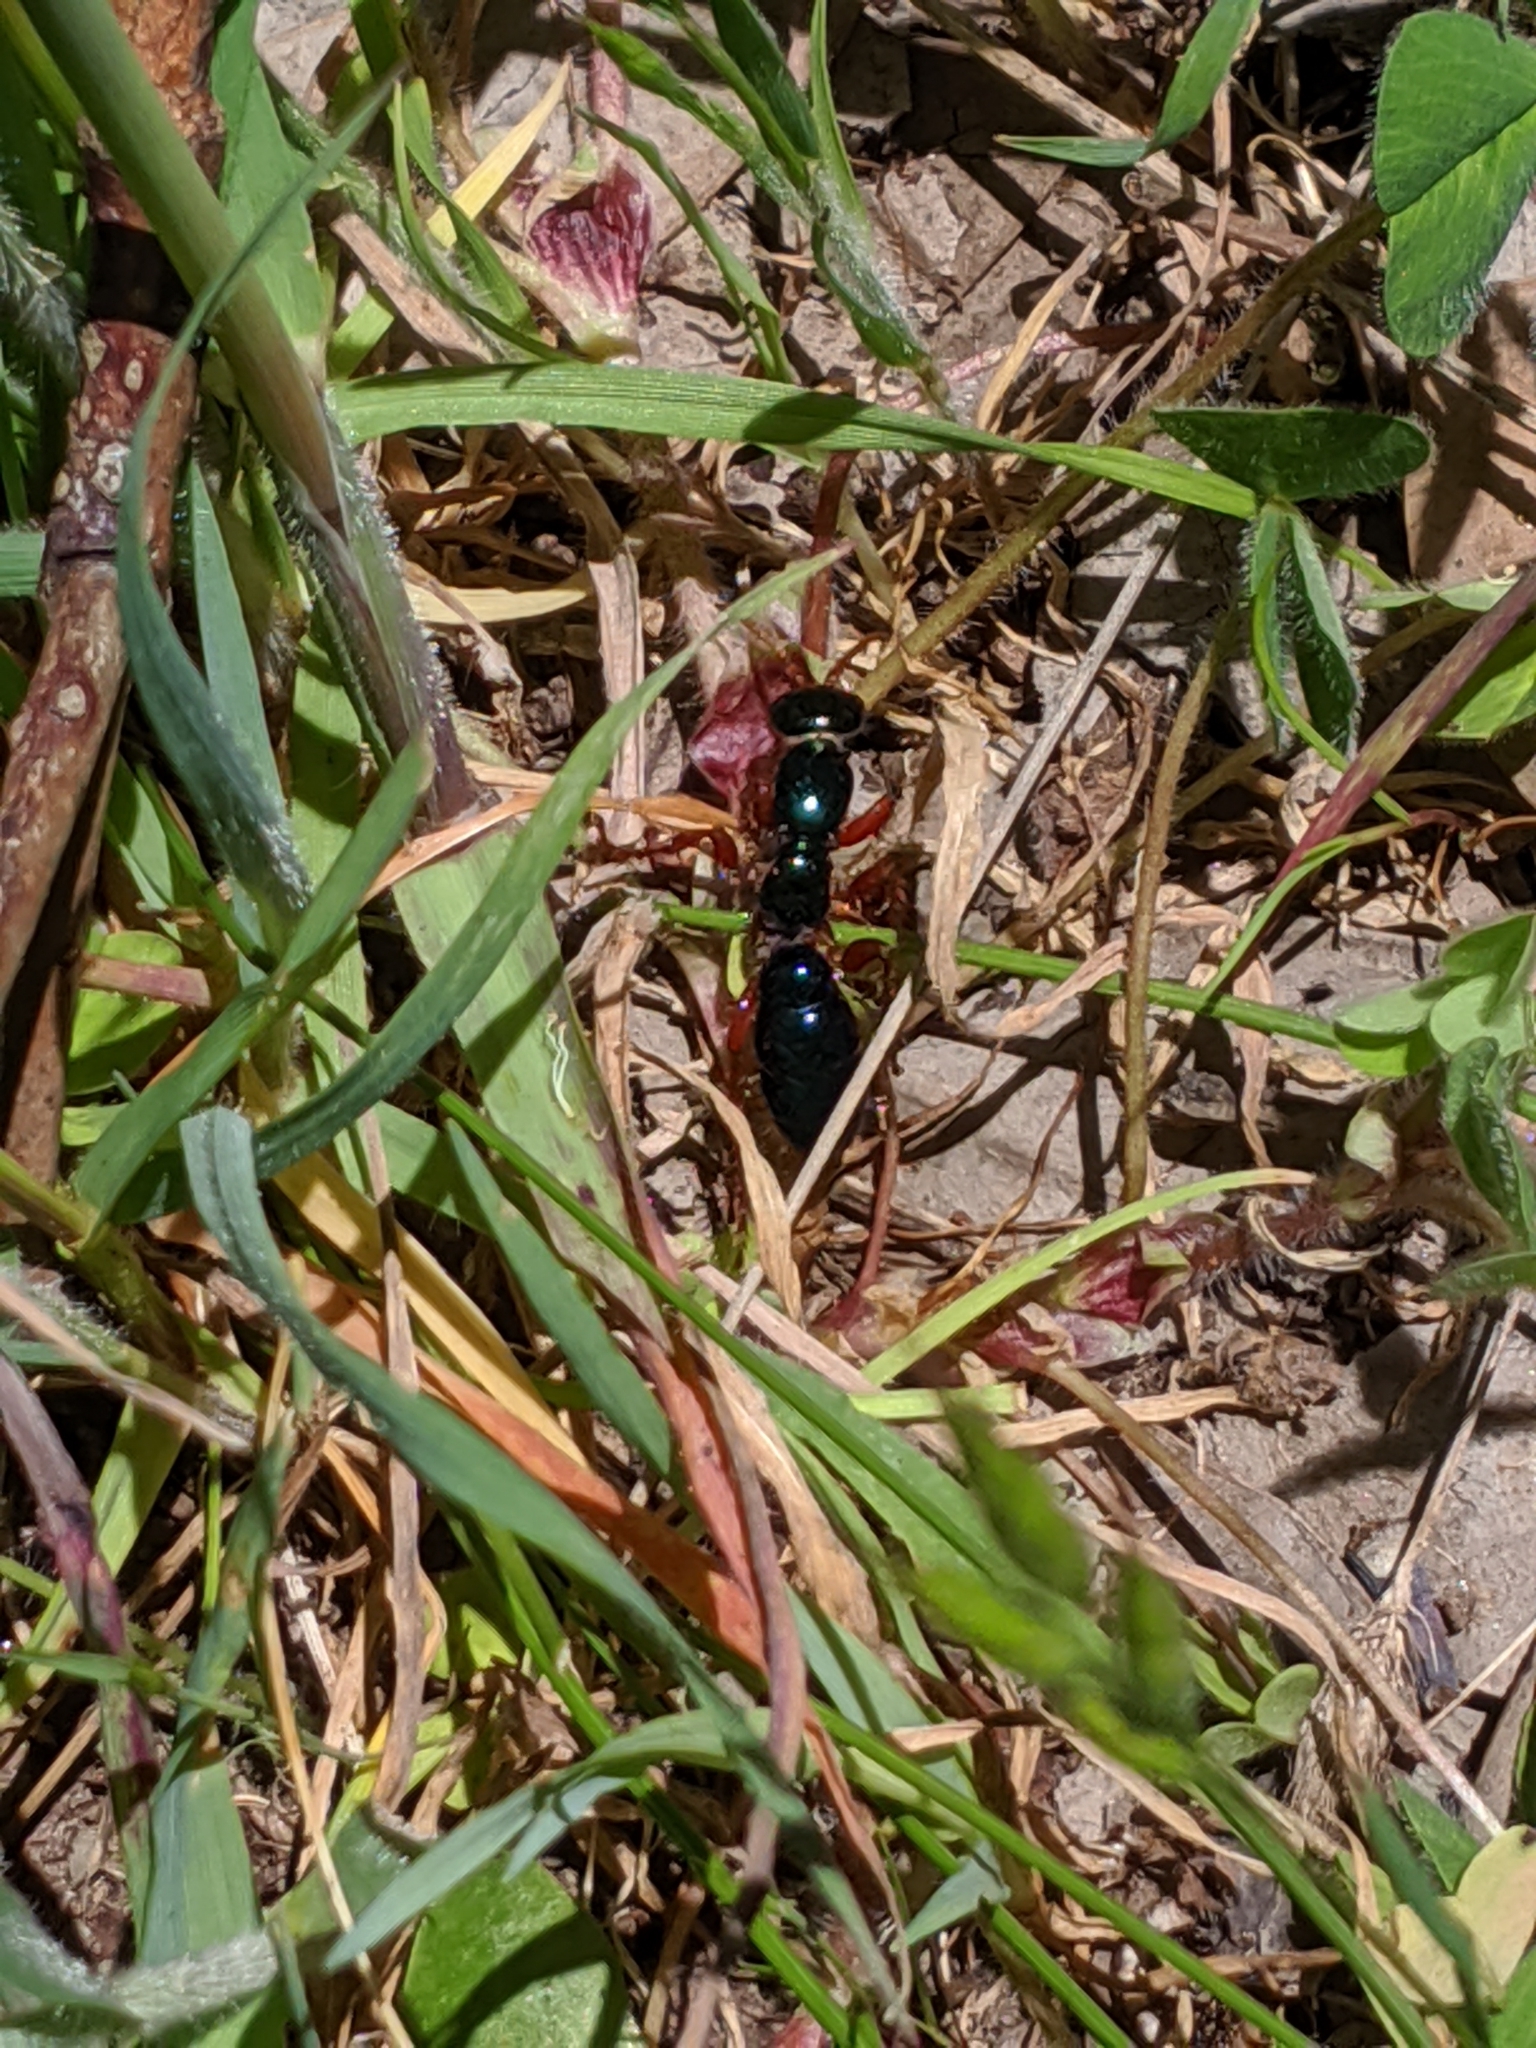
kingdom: Animalia
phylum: Arthropoda
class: Insecta
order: Hymenoptera
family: Tiphiidae
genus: Diamma
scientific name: Diamma
